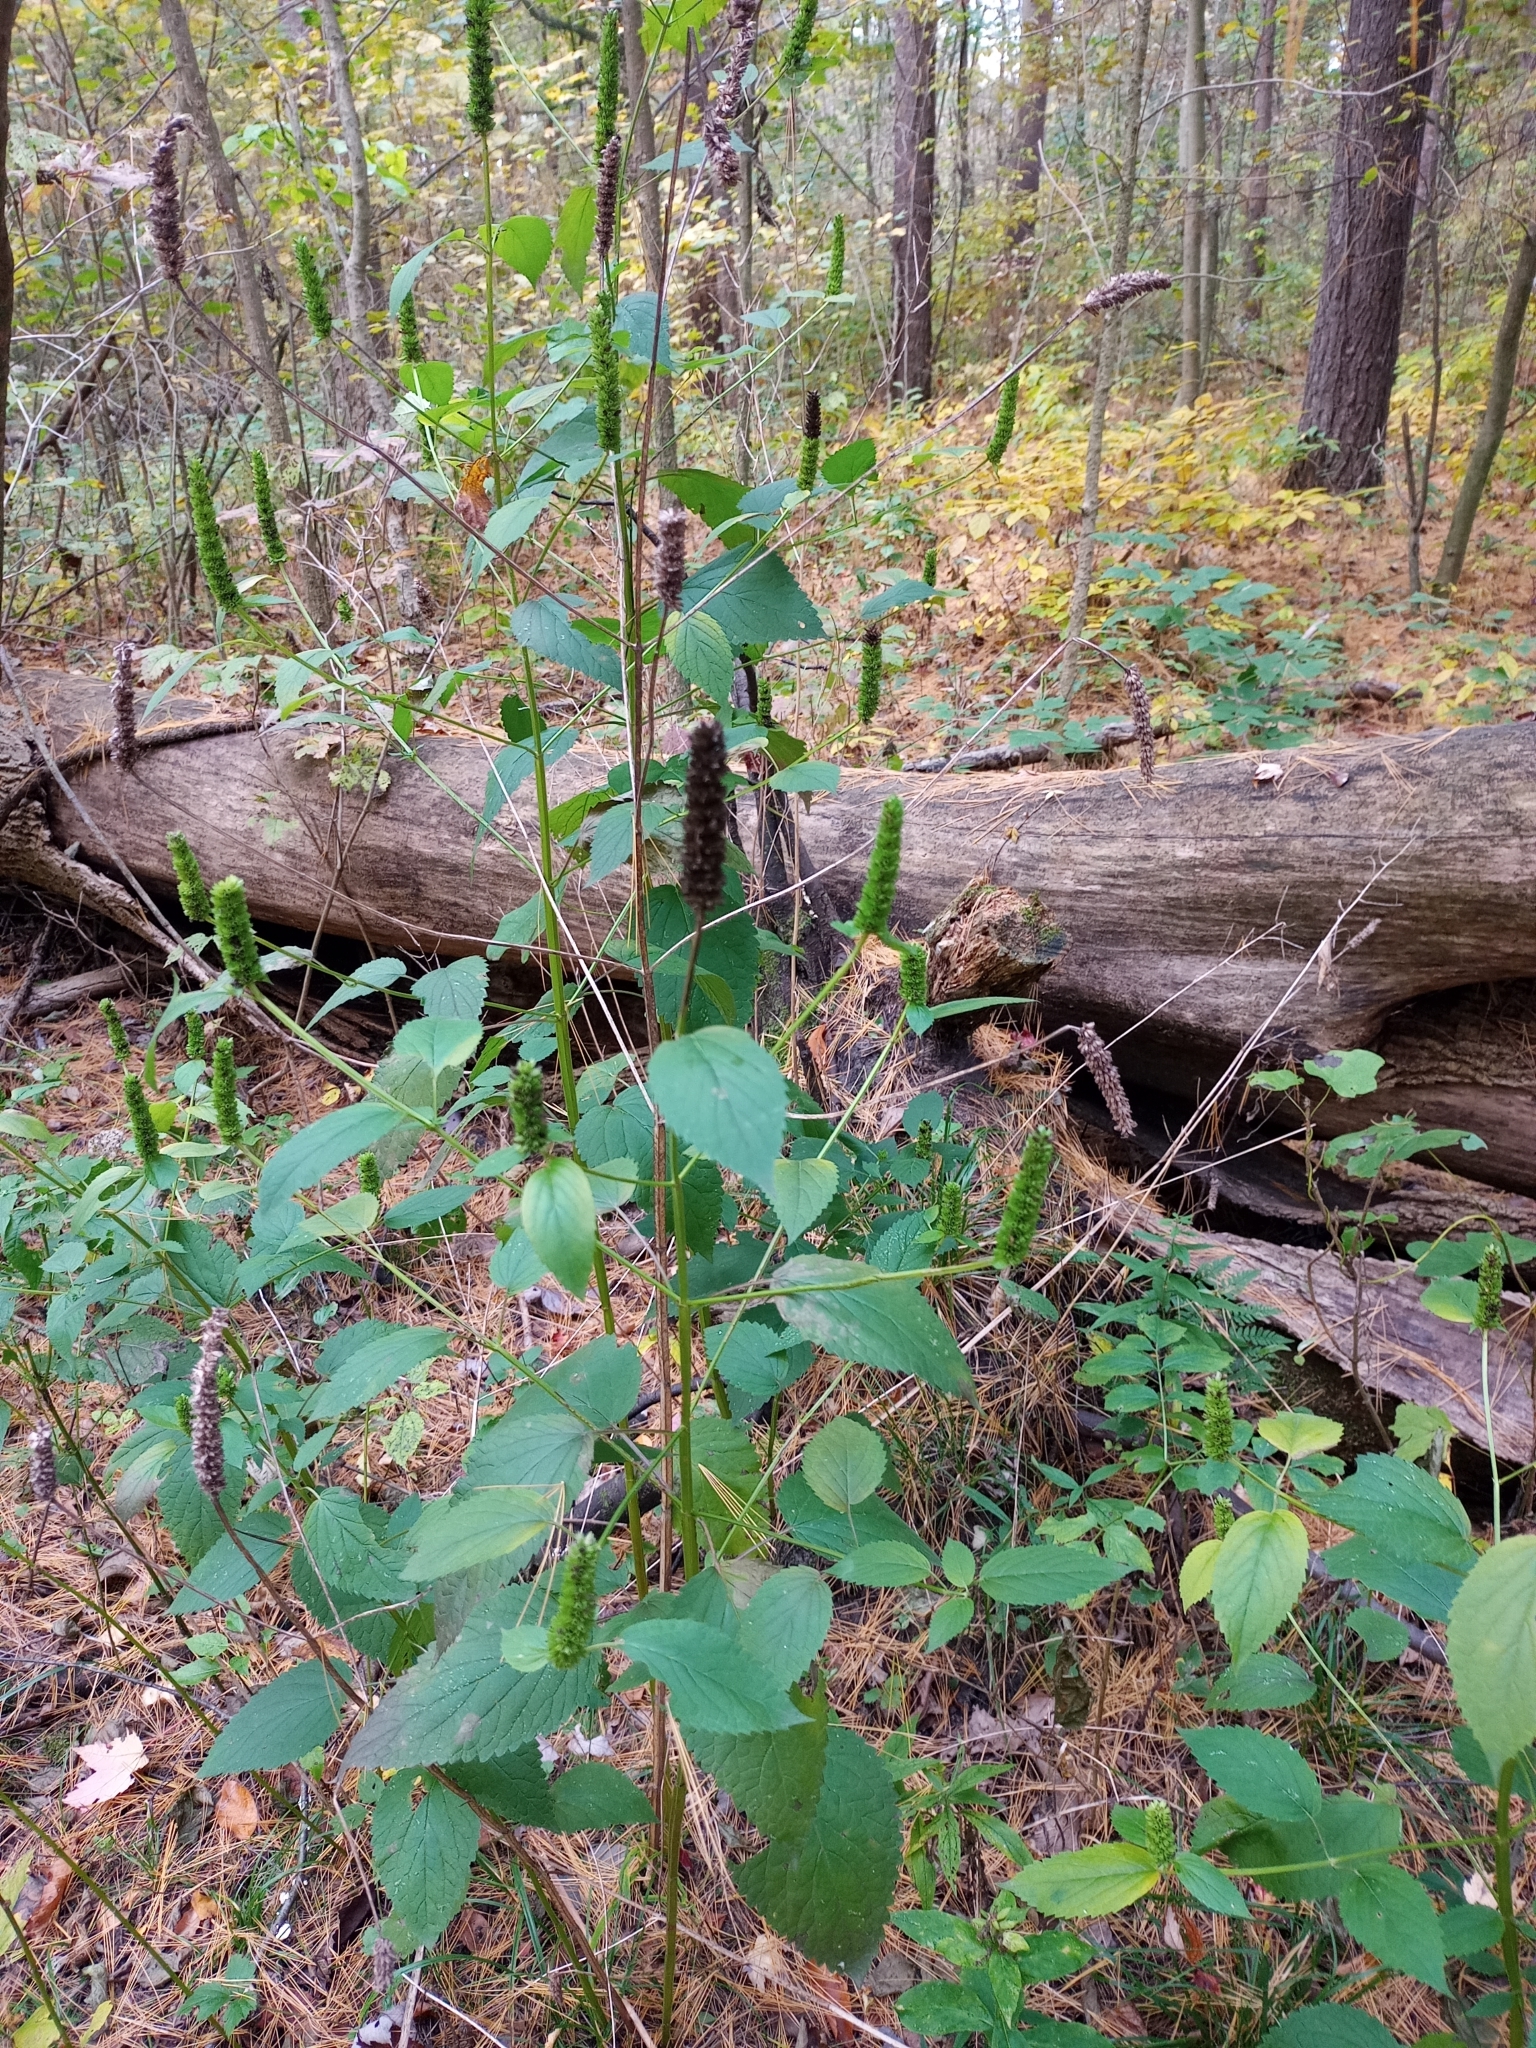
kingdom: Plantae
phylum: Tracheophyta
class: Magnoliopsida
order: Lamiales
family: Lamiaceae
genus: Agastache
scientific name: Agastache nepetoides
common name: Catnip giant hyssop
